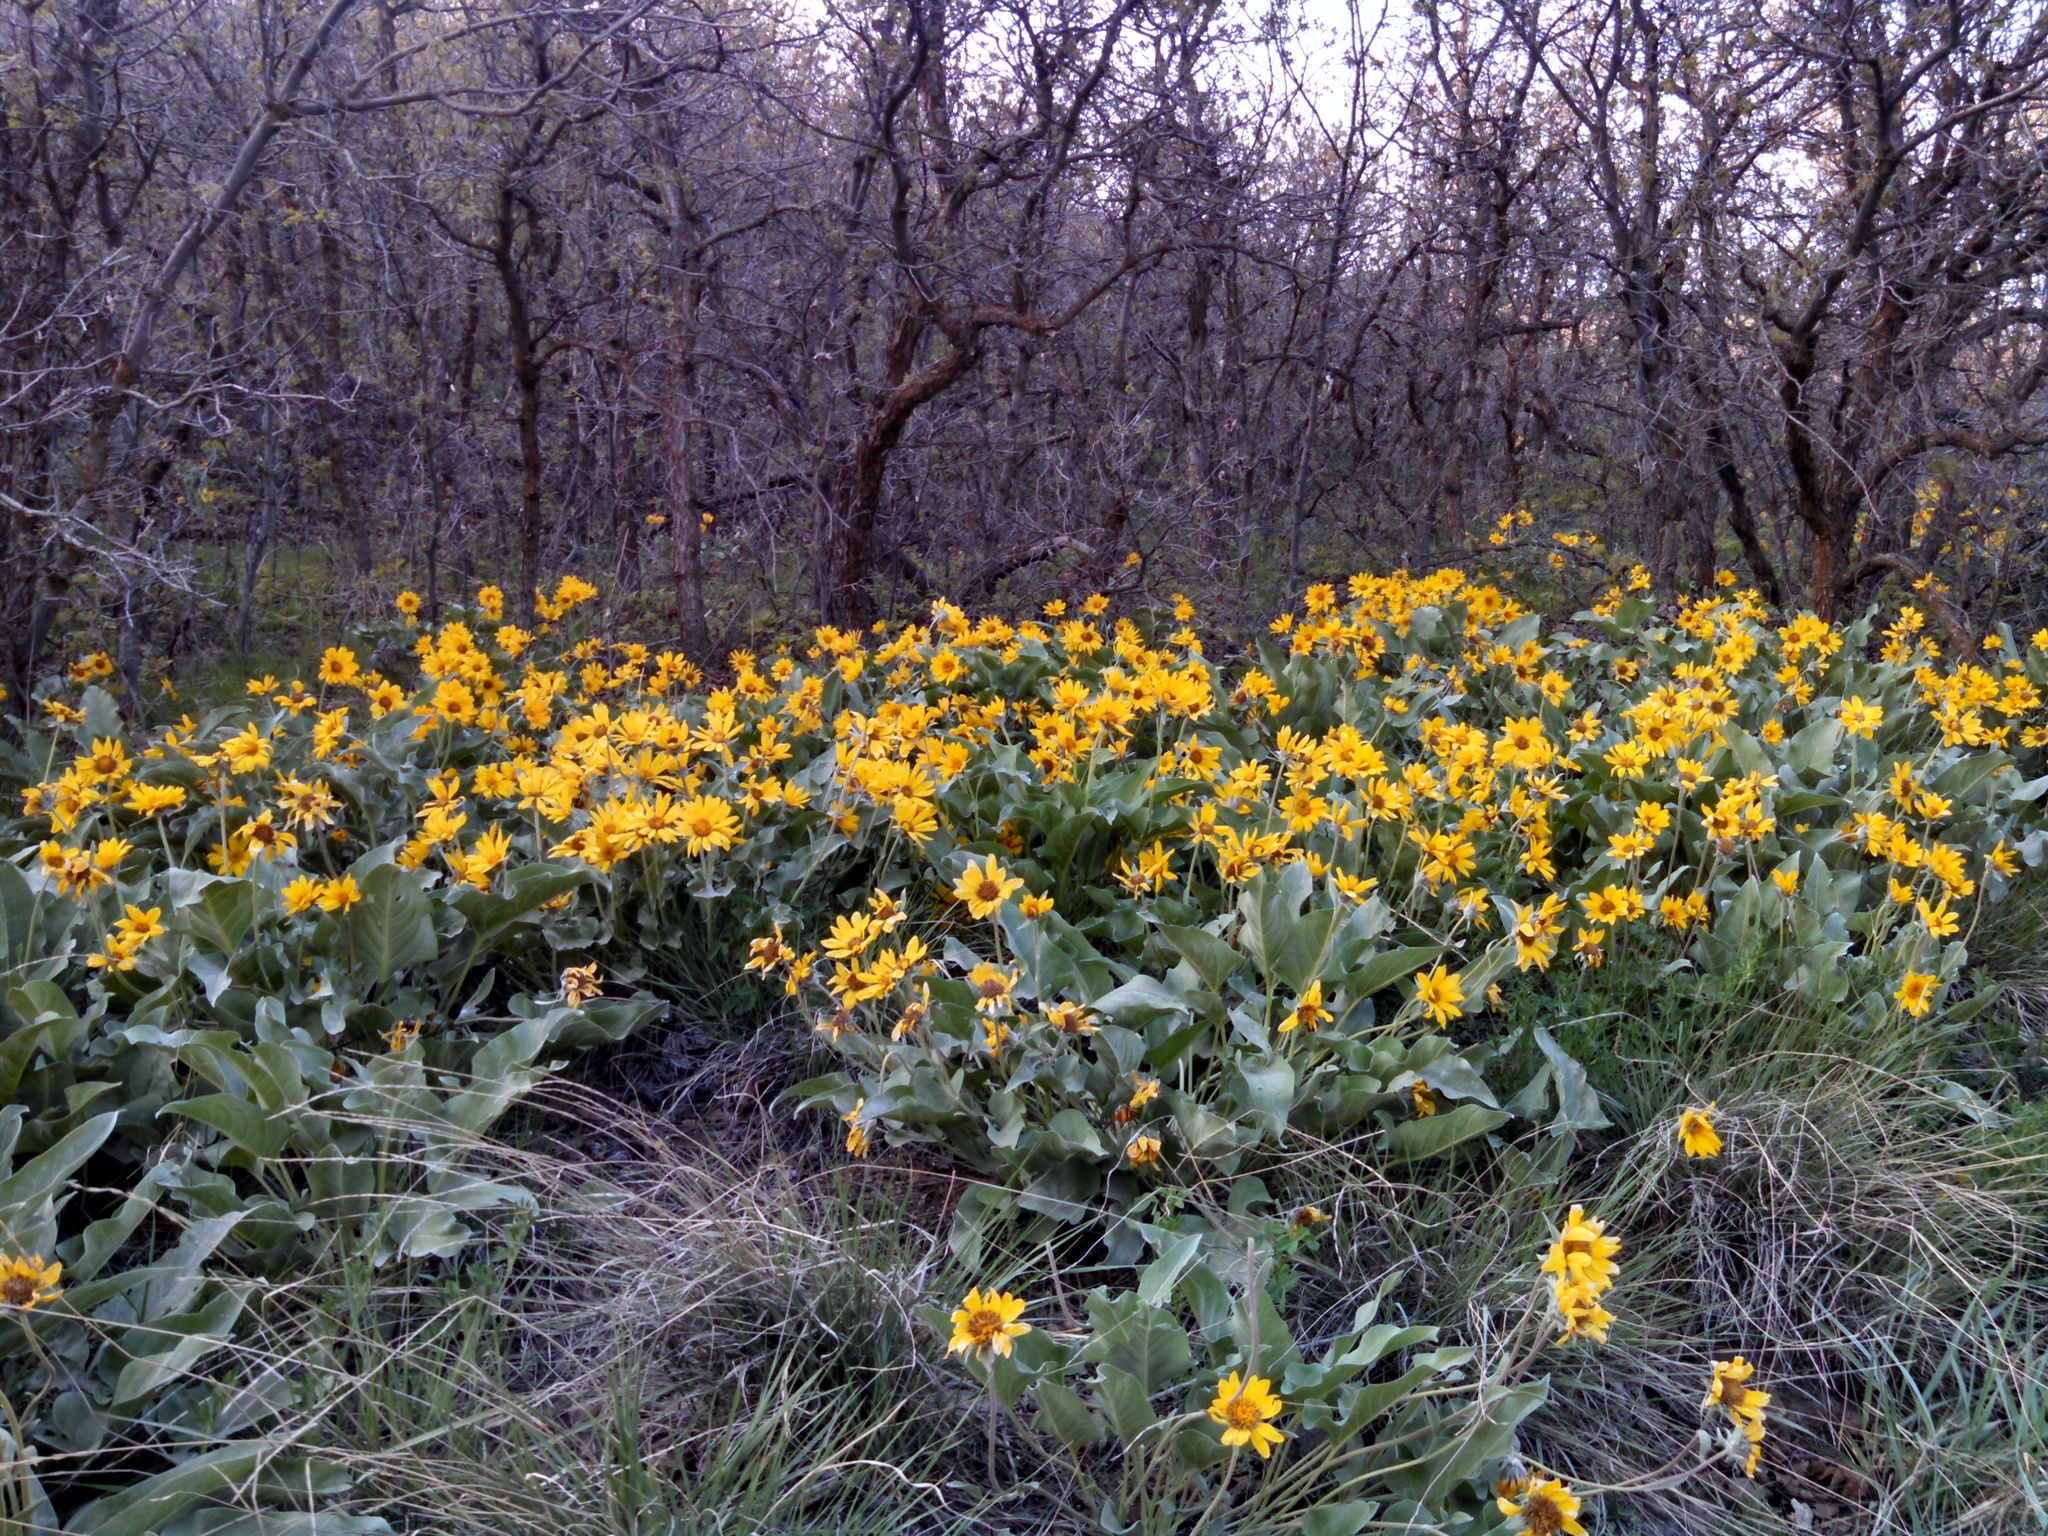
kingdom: Plantae
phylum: Tracheophyta
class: Magnoliopsida
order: Asterales
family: Asteraceae
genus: Wyethia
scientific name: Wyethia sagittata
